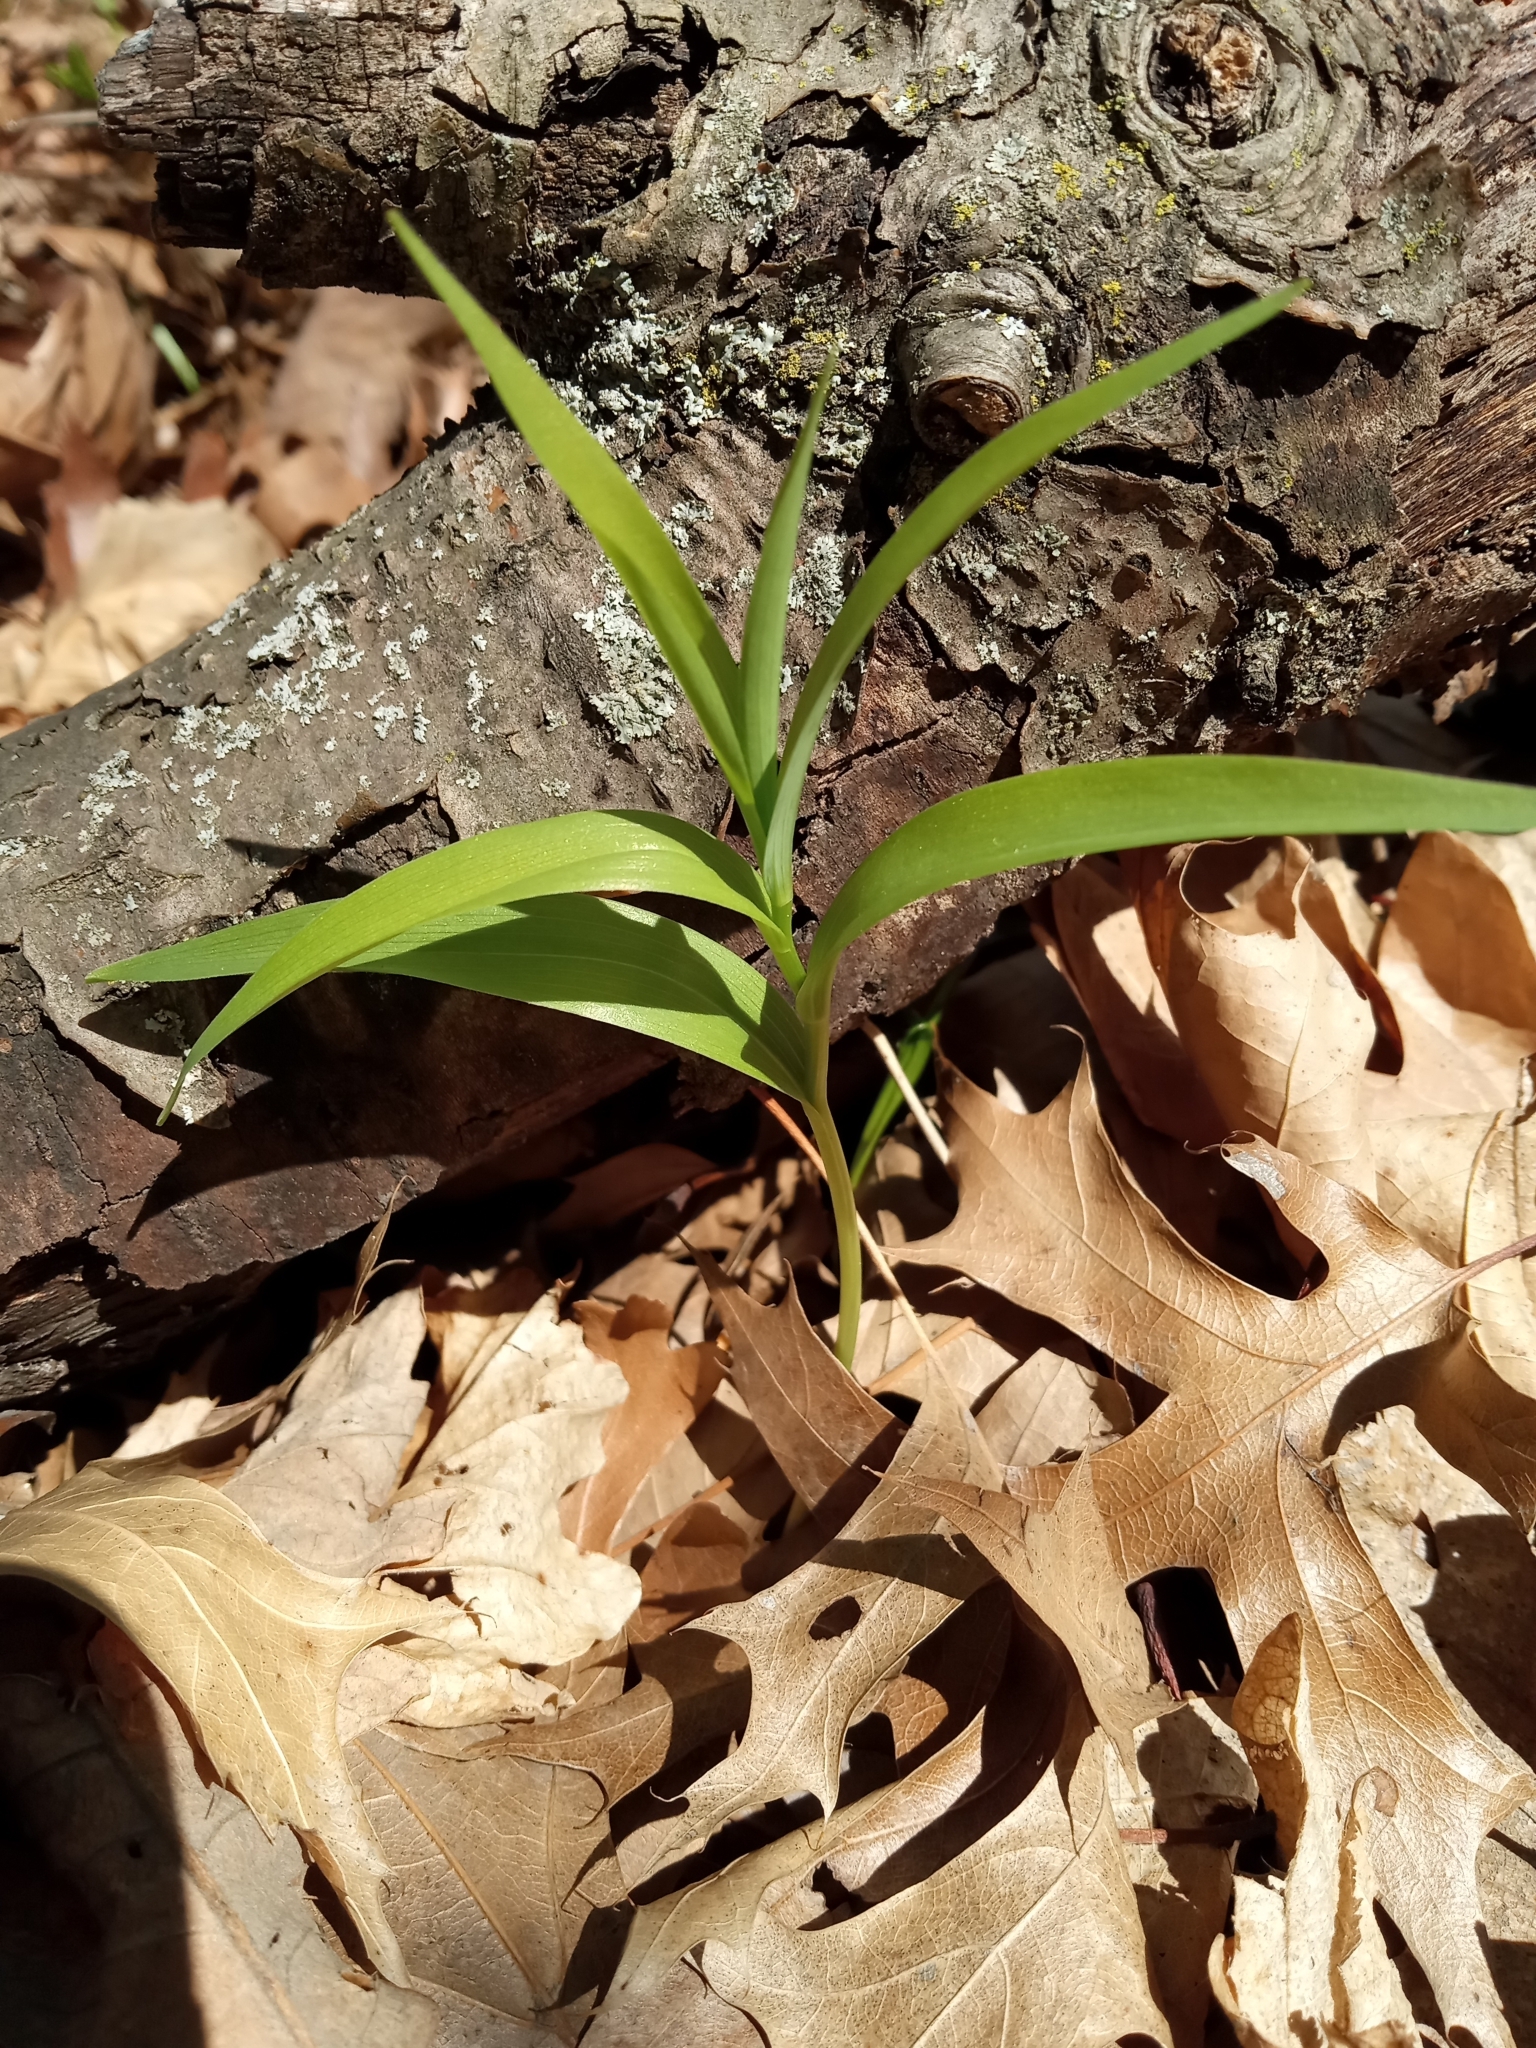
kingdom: Plantae
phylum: Tracheophyta
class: Liliopsida
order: Asparagales
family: Asparagaceae
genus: Maianthemum
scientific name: Maianthemum stellatum
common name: Little false solomon's seal
